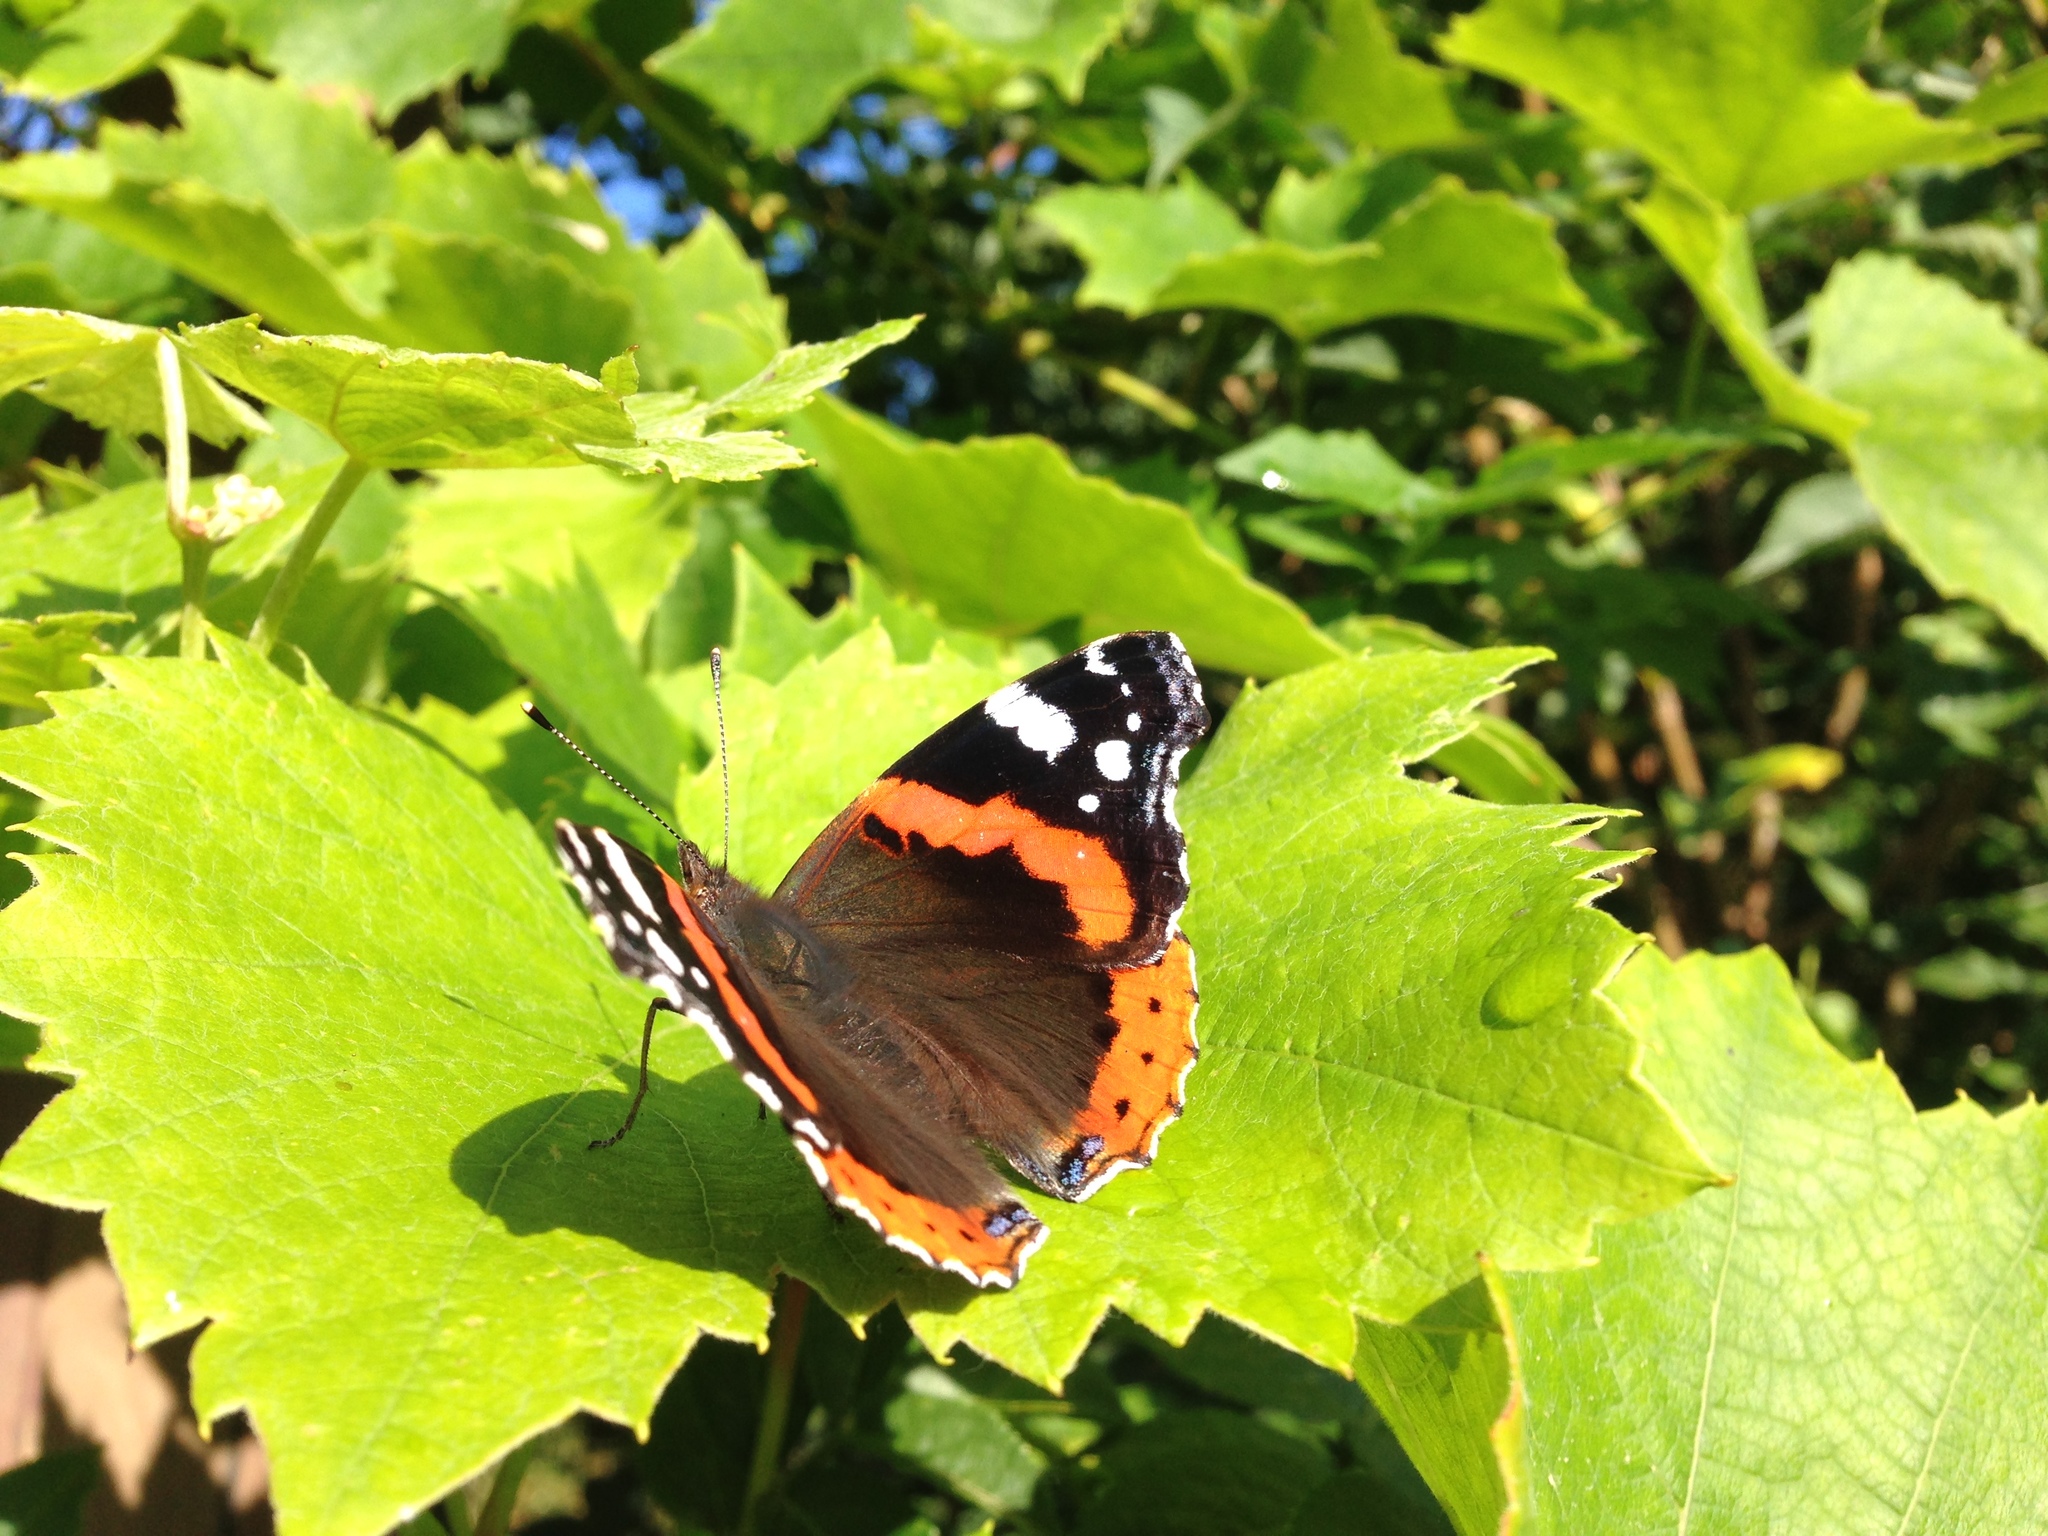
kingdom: Animalia
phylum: Arthropoda
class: Insecta
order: Lepidoptera
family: Nymphalidae
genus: Vanessa
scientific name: Vanessa atalanta
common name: Red admiral
